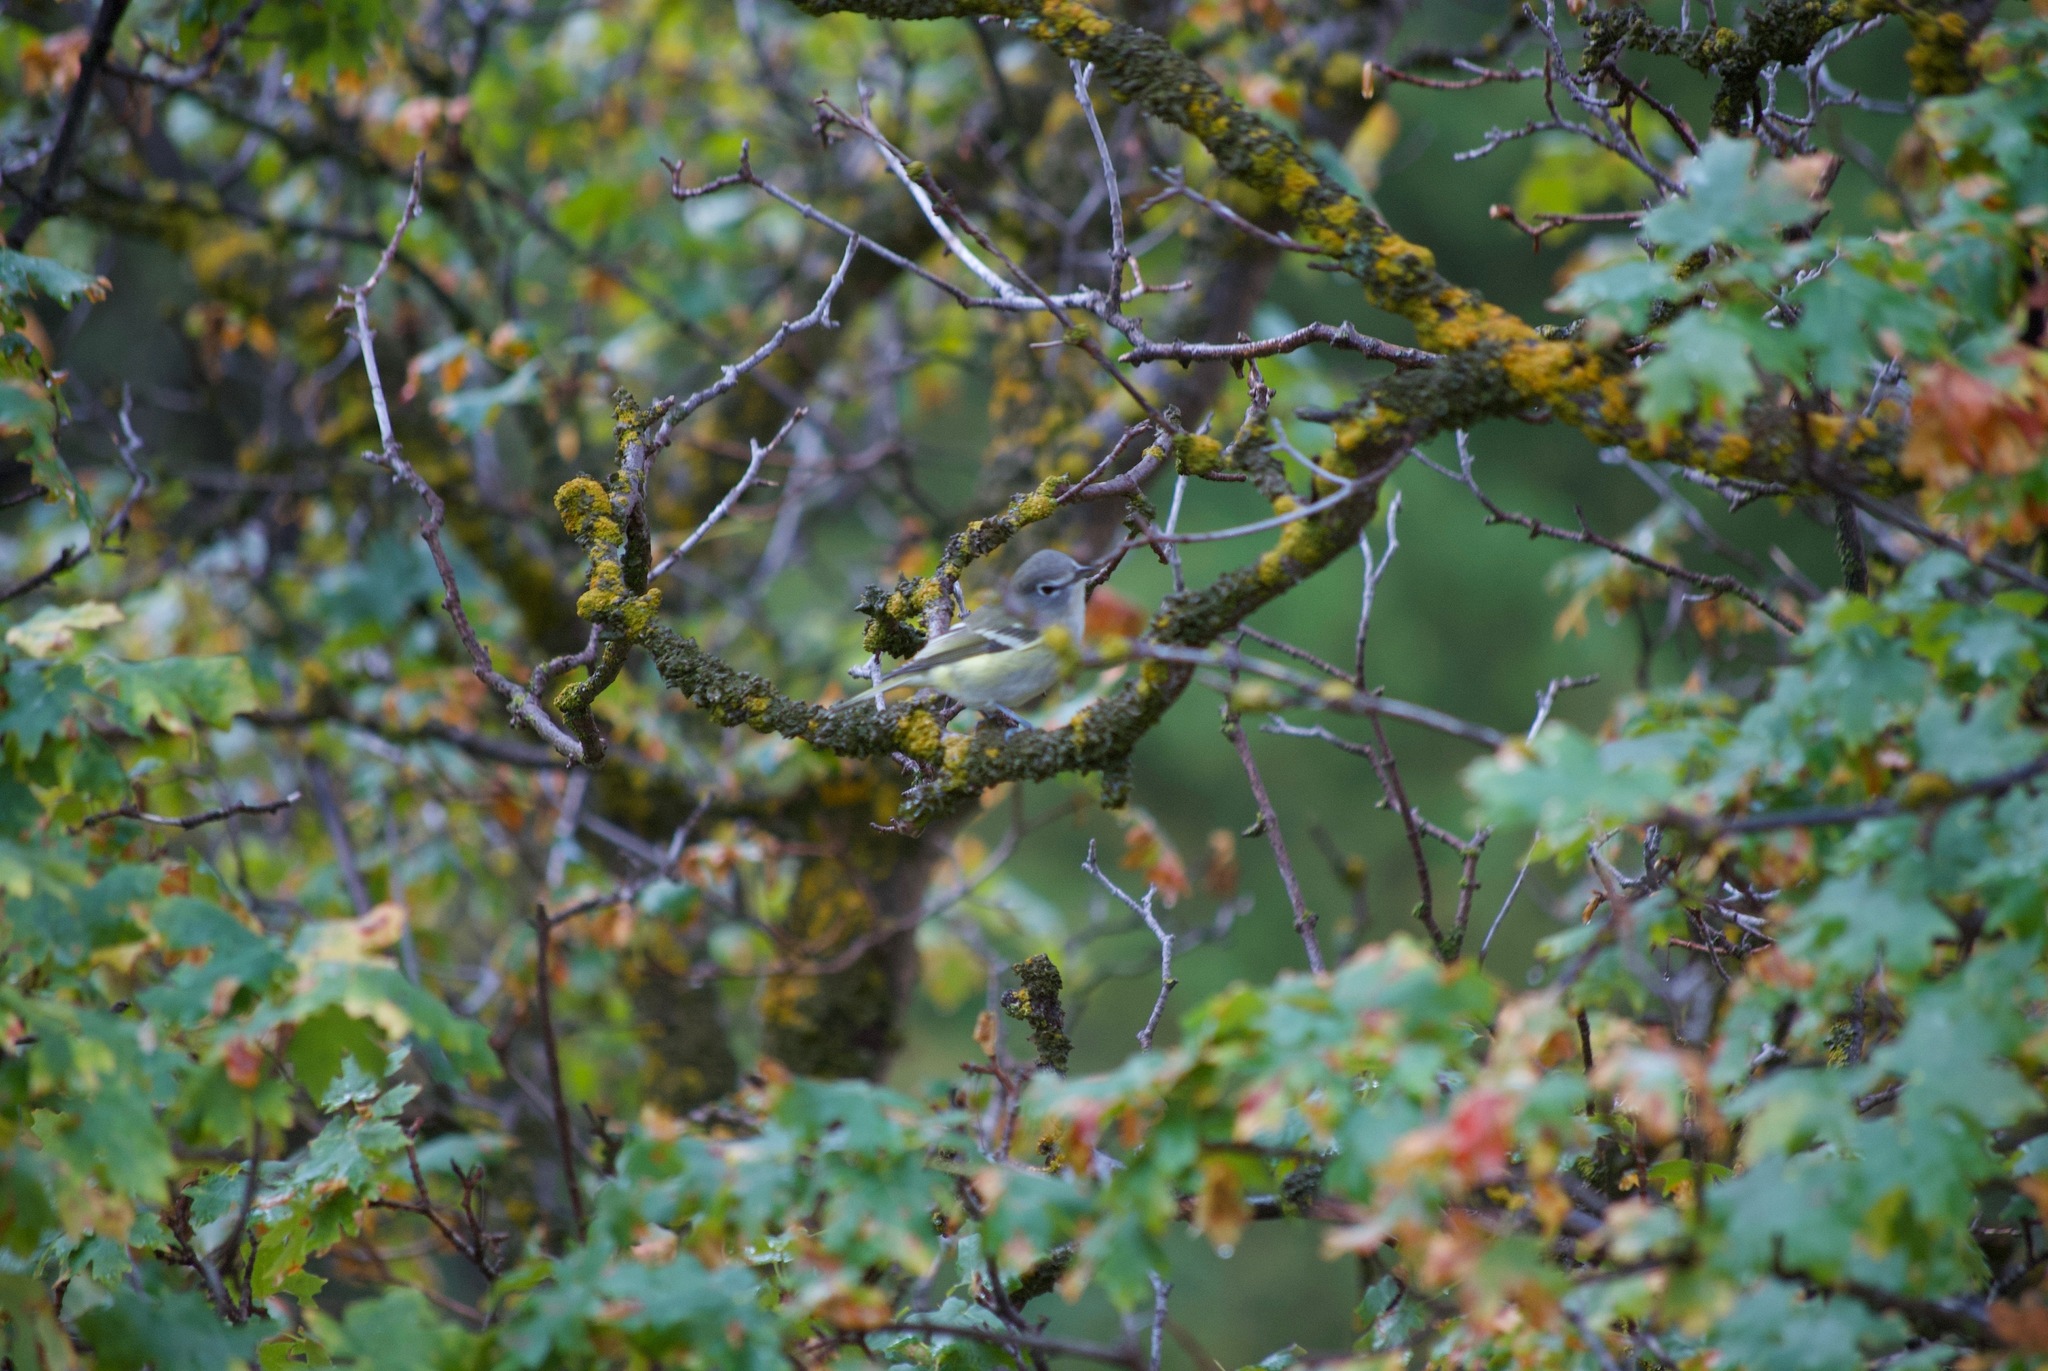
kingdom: Animalia
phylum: Chordata
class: Aves
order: Passeriformes
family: Vireonidae
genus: Vireo
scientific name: Vireo cassinii
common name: Cassin's vireo
